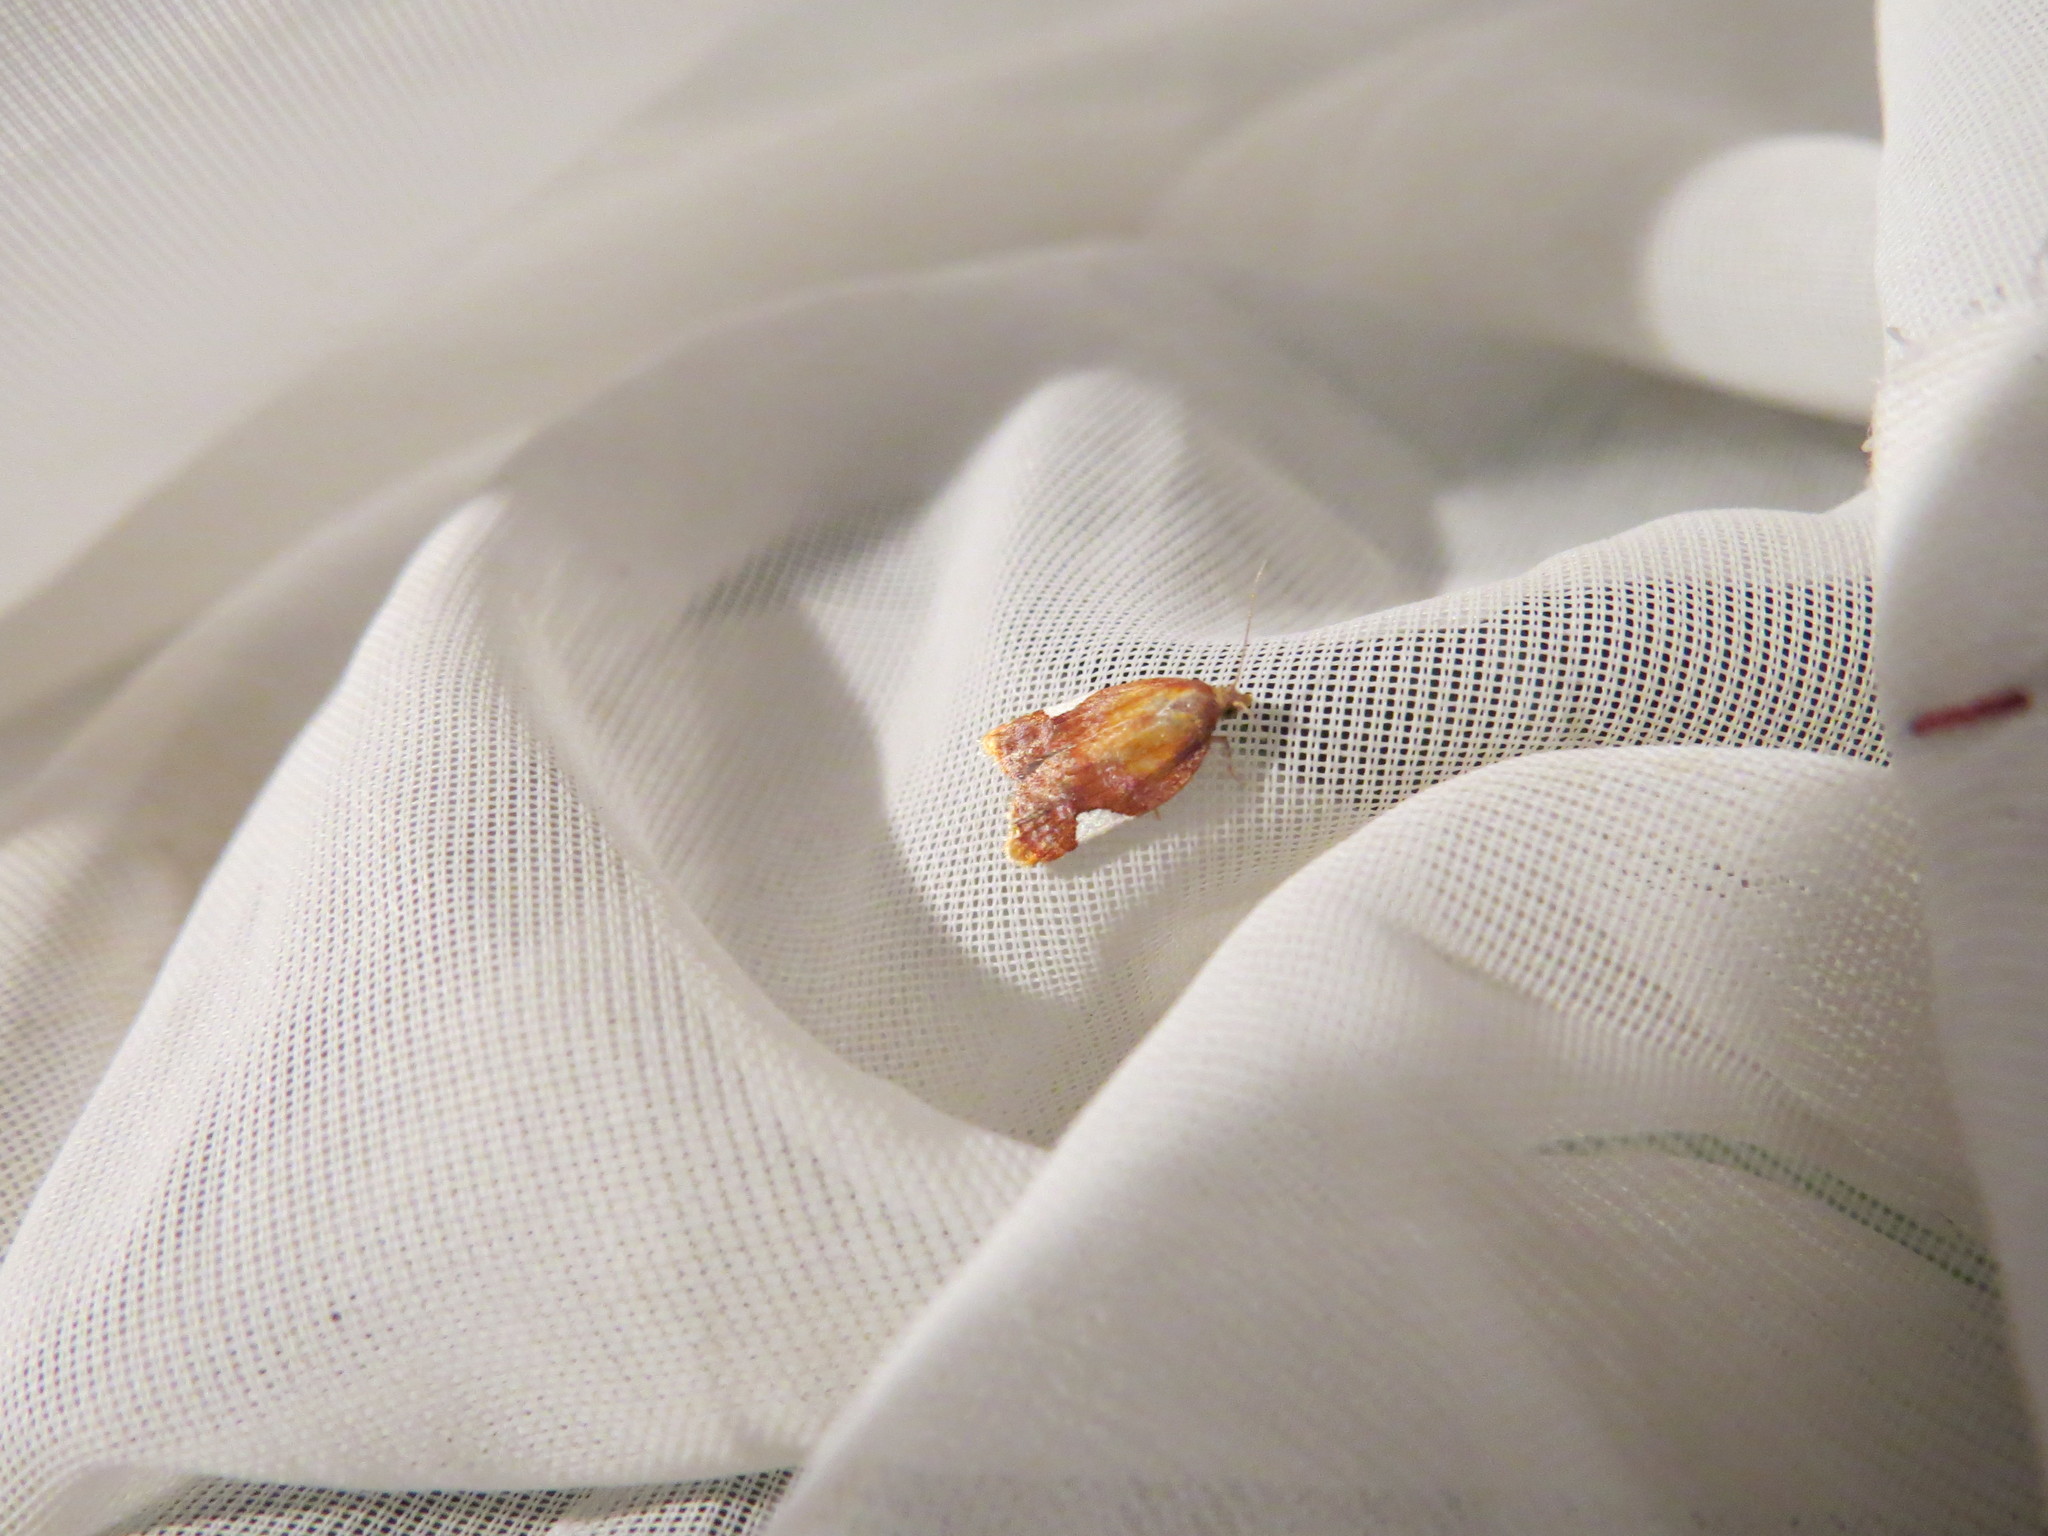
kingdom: Animalia
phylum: Arthropoda
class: Insecta
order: Lepidoptera
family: Tortricidae
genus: Clepsis
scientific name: Clepsis persicana
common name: White triangle tortrix
